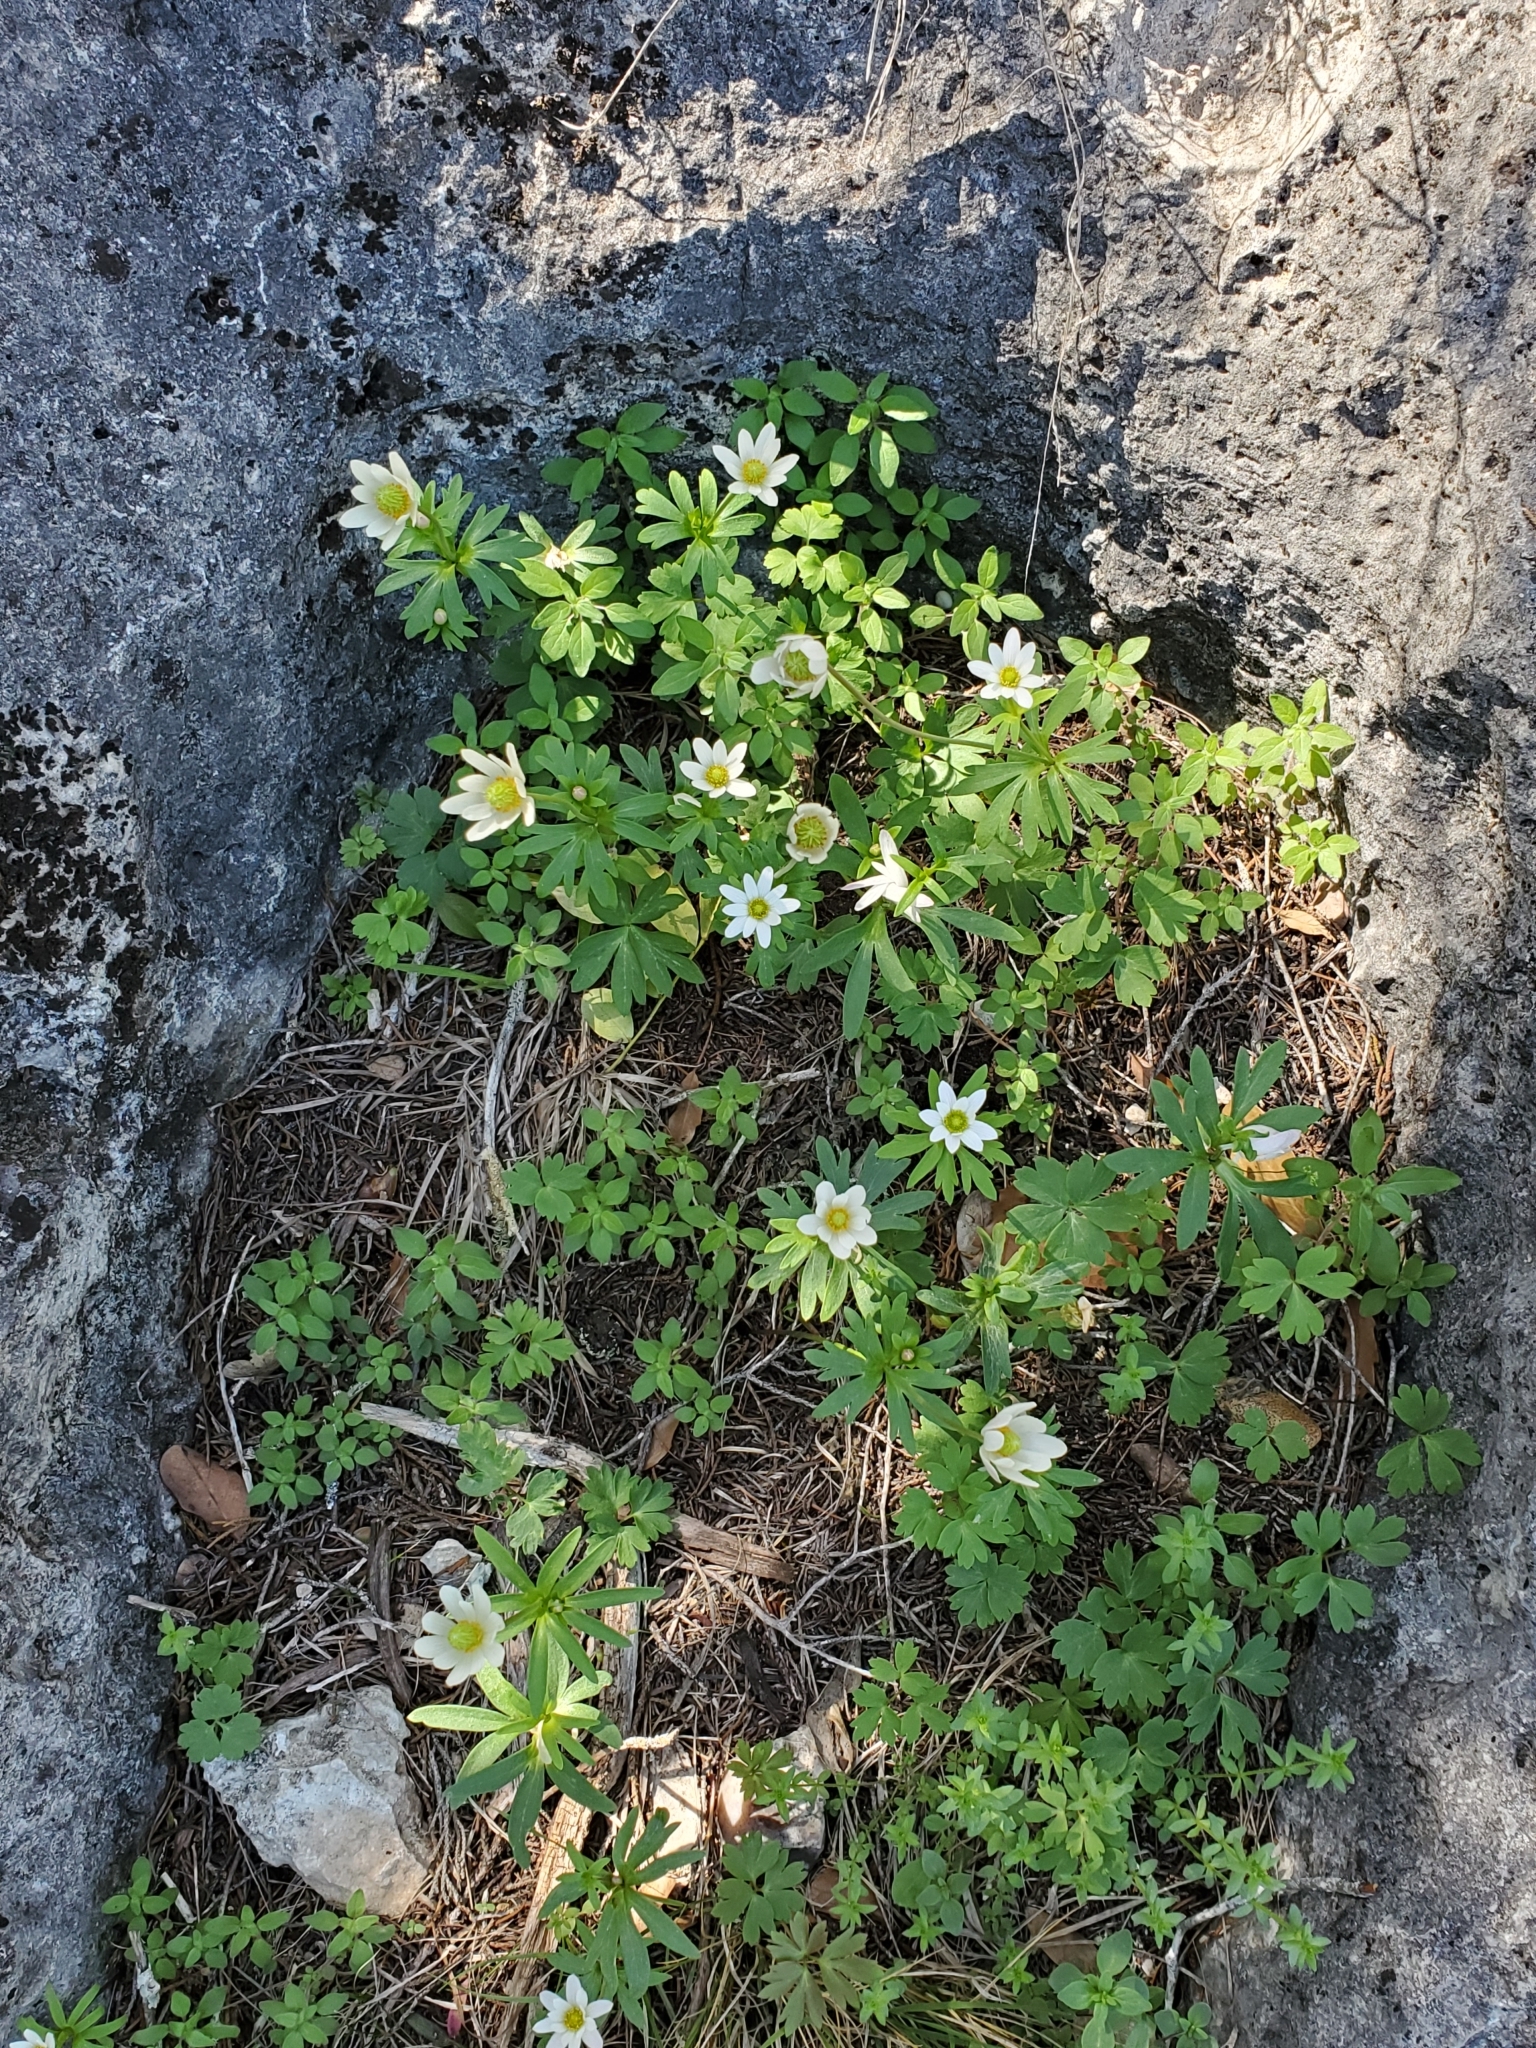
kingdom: Plantae
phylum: Tracheophyta
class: Magnoliopsida
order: Ranunculales
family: Ranunculaceae
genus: Anemone
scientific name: Anemone edwardsiana
